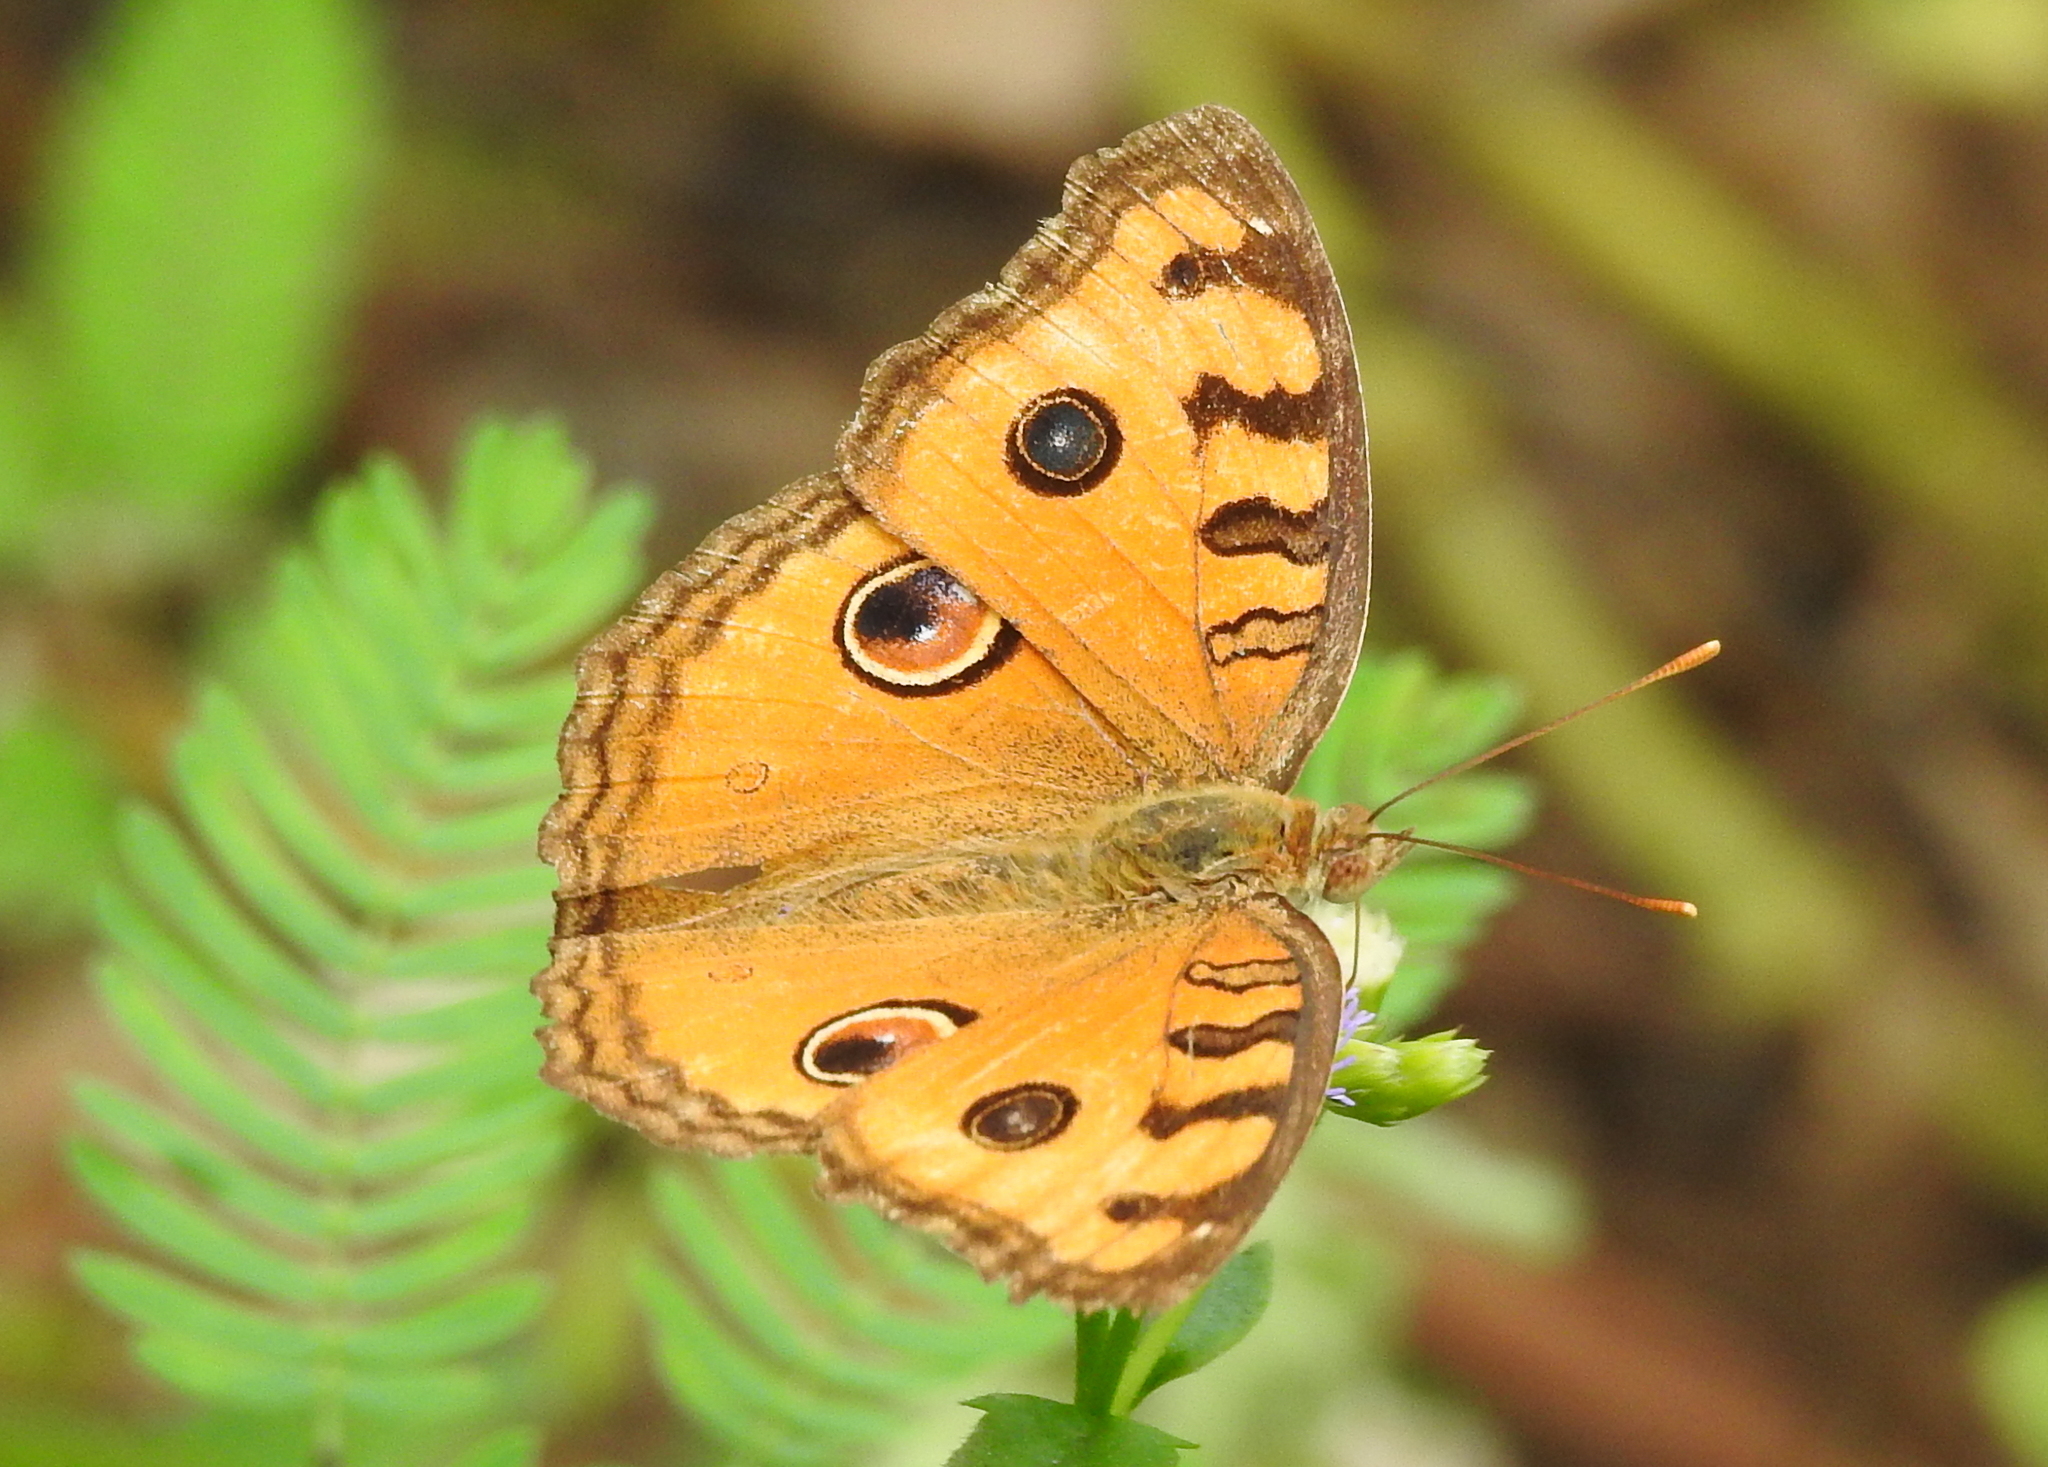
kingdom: Animalia
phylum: Arthropoda
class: Insecta
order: Lepidoptera
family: Nymphalidae
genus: Junonia
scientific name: Junonia almana
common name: Peacock pansy
